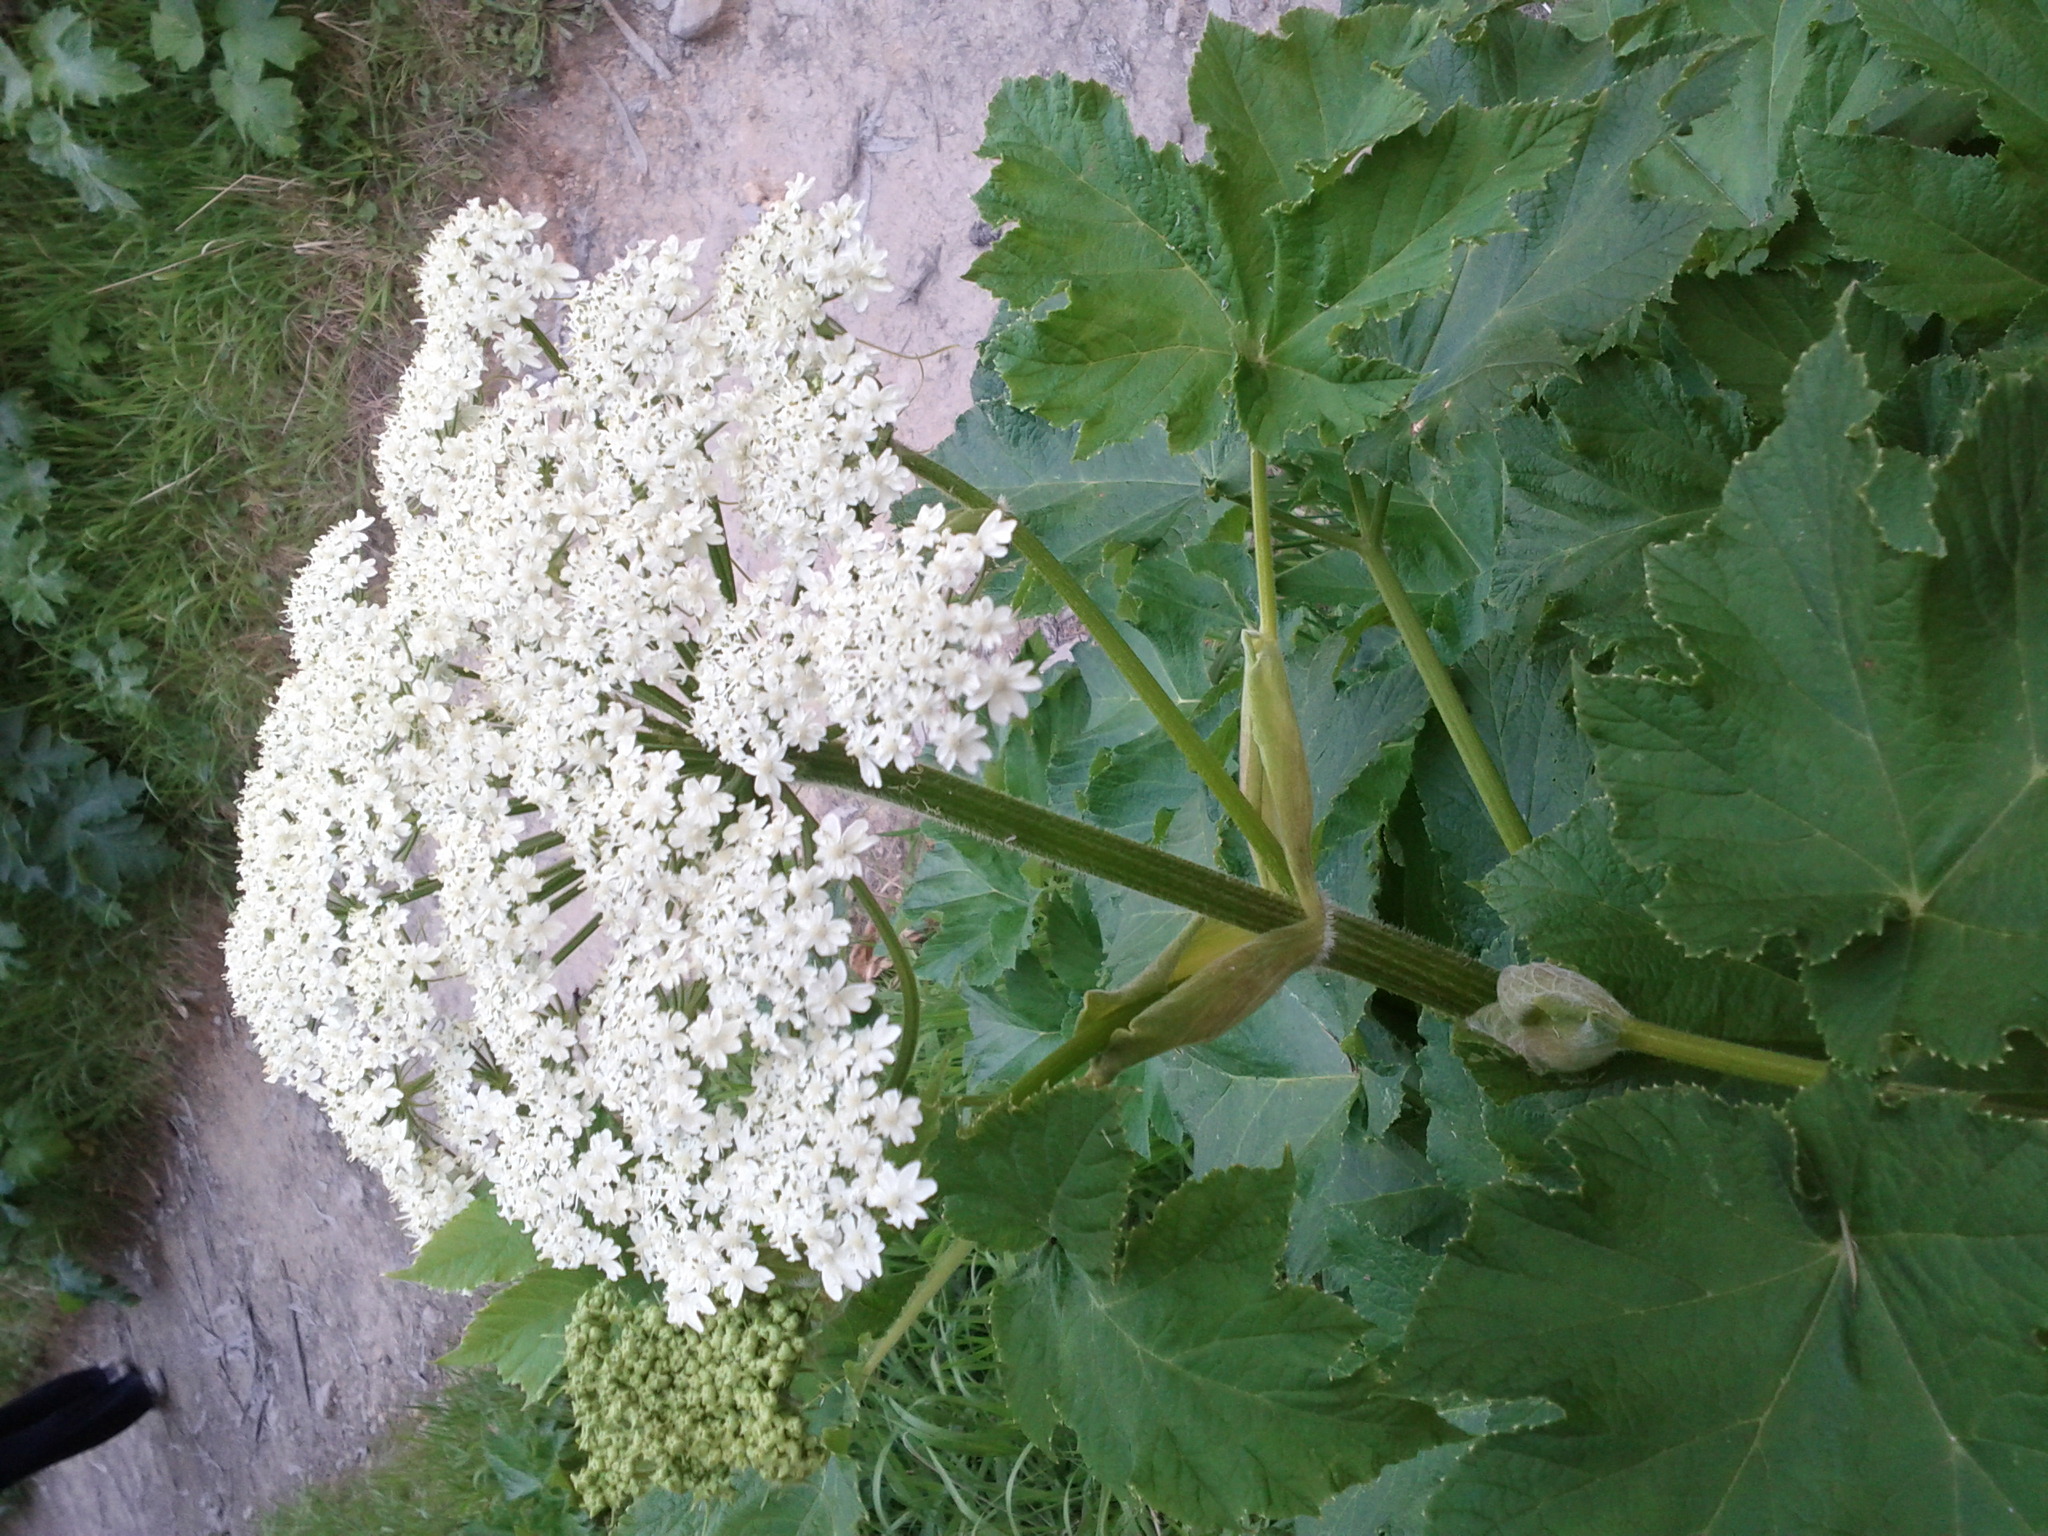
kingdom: Plantae
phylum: Tracheophyta
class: Magnoliopsida
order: Apiales
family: Apiaceae
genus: Heracleum
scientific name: Heracleum maximum
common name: American cow parsnip
